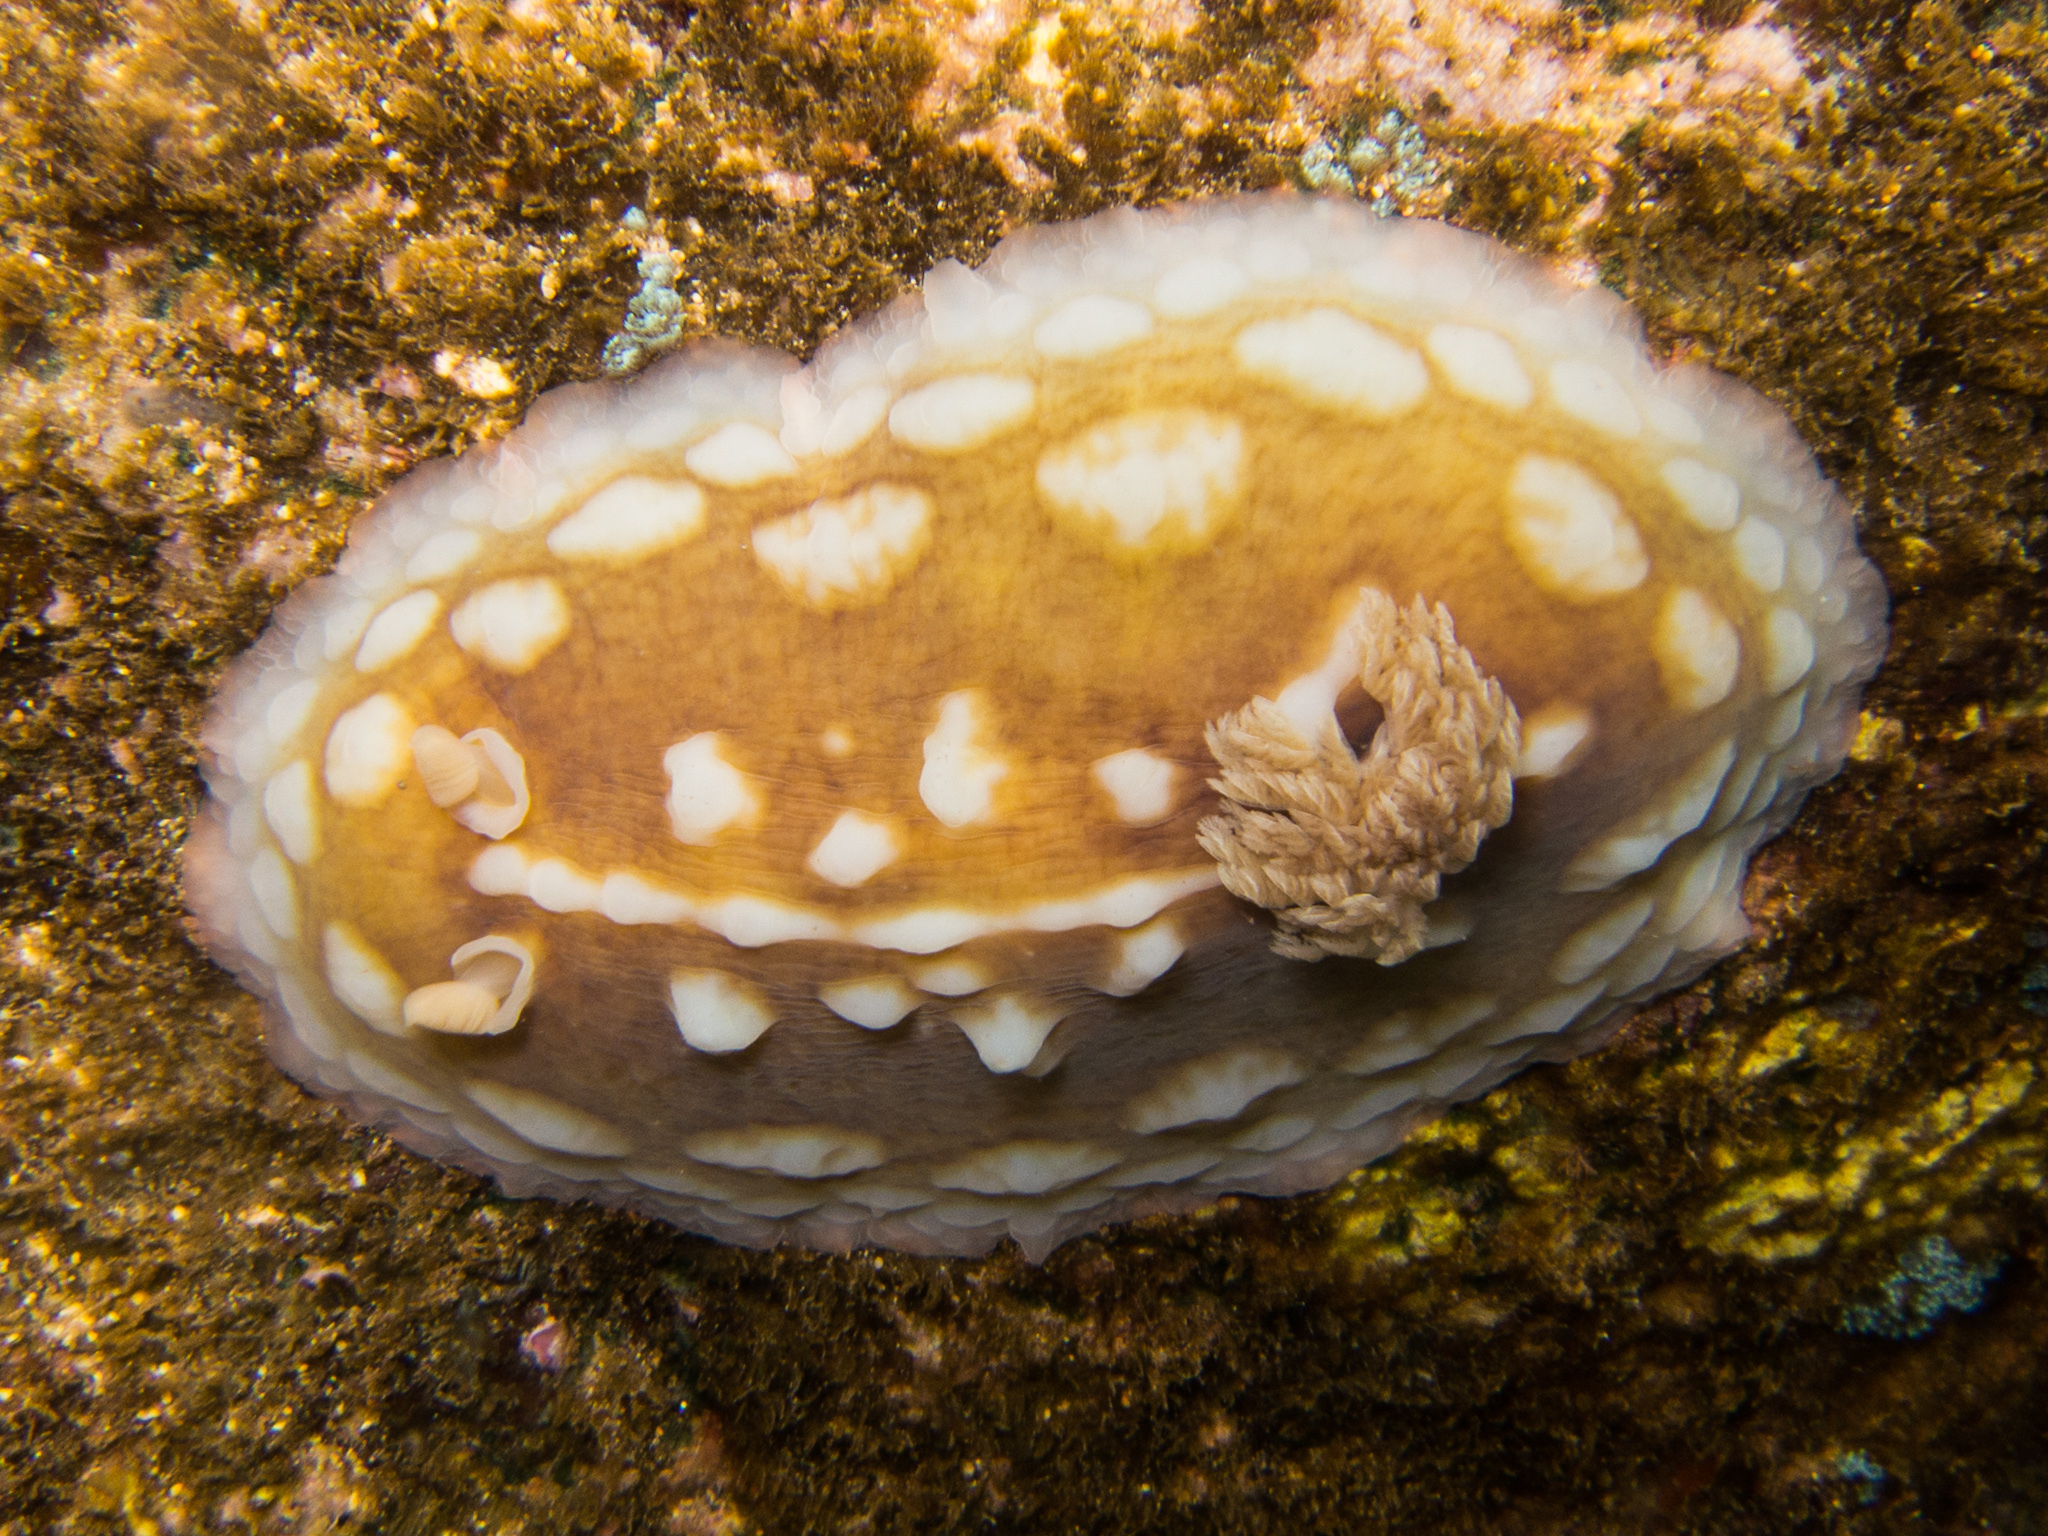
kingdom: Animalia
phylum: Mollusca
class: Gastropoda
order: Nudibranchia
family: Discodorididae
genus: Asteronotus
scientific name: Asteronotus cespitosus
